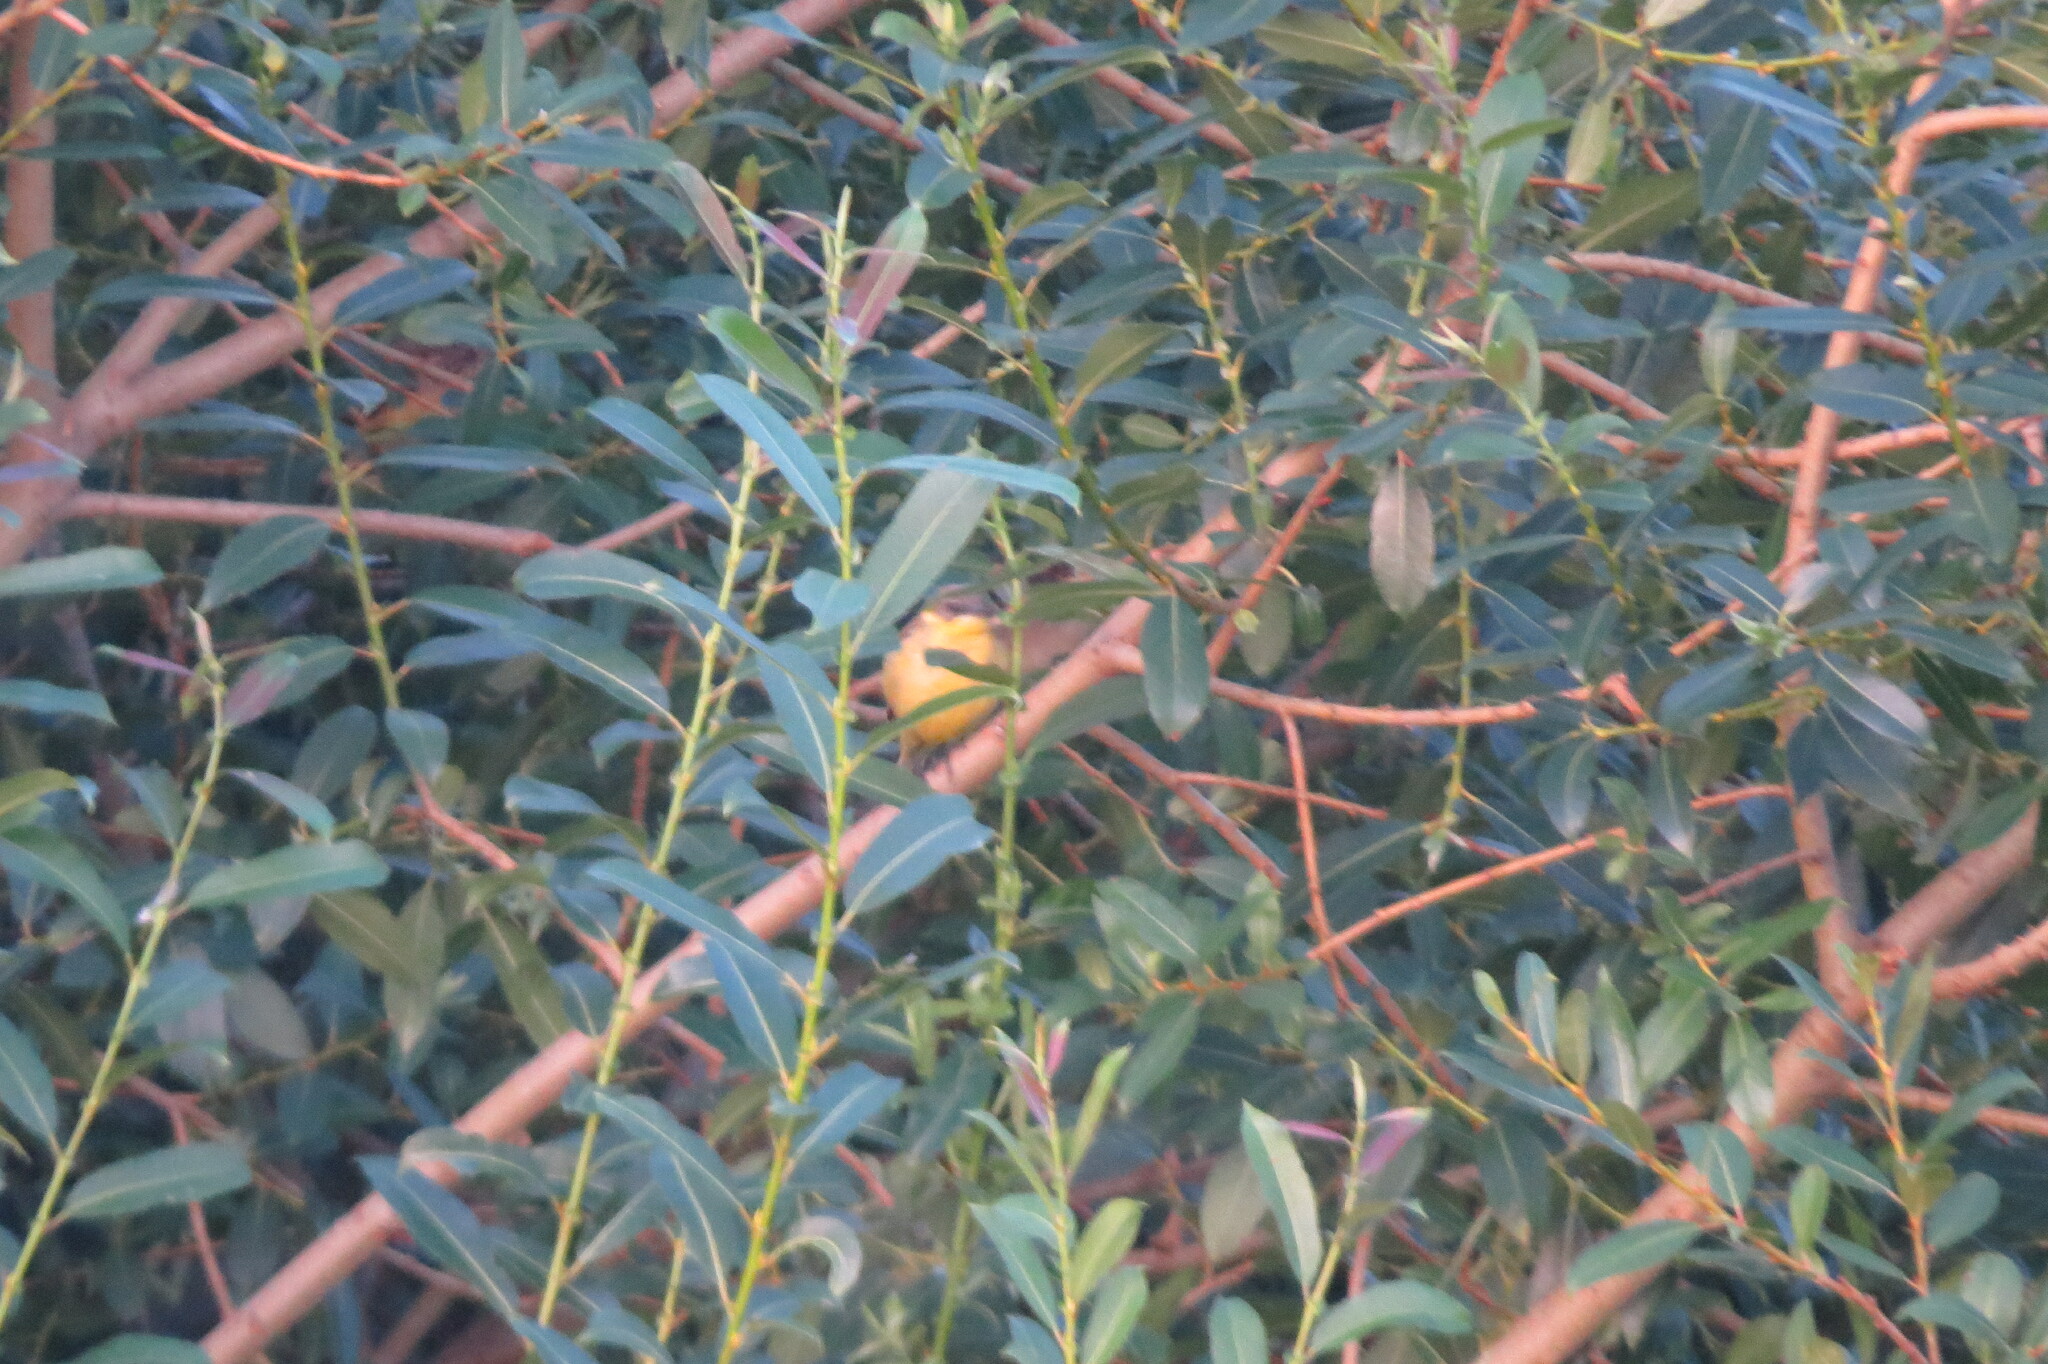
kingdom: Animalia
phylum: Chordata
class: Aves
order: Passeriformes
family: Motacillidae
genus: Motacilla
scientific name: Motacilla flava
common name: Western yellow wagtail
